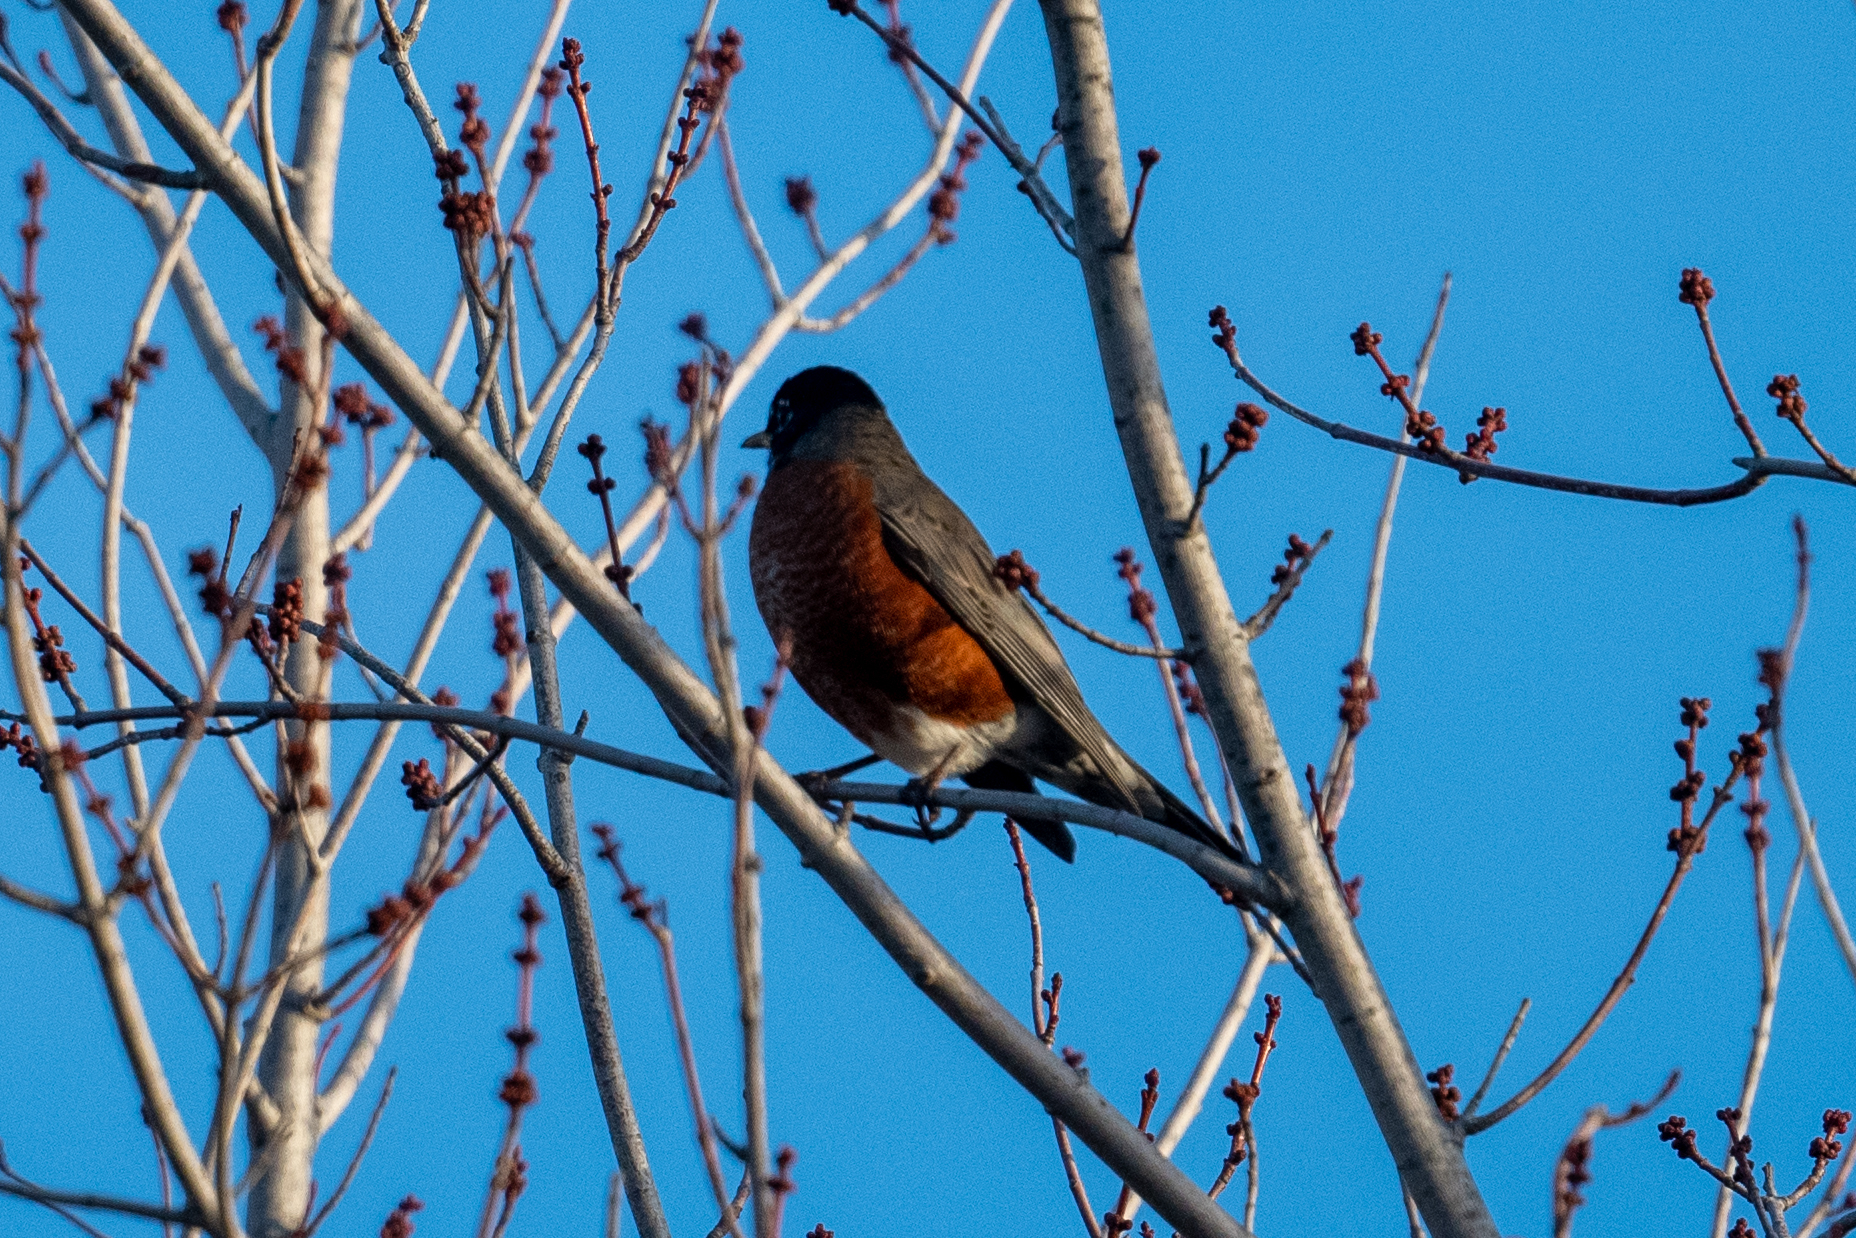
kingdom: Animalia
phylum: Chordata
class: Aves
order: Passeriformes
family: Turdidae
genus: Turdus
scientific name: Turdus migratorius
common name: American robin
